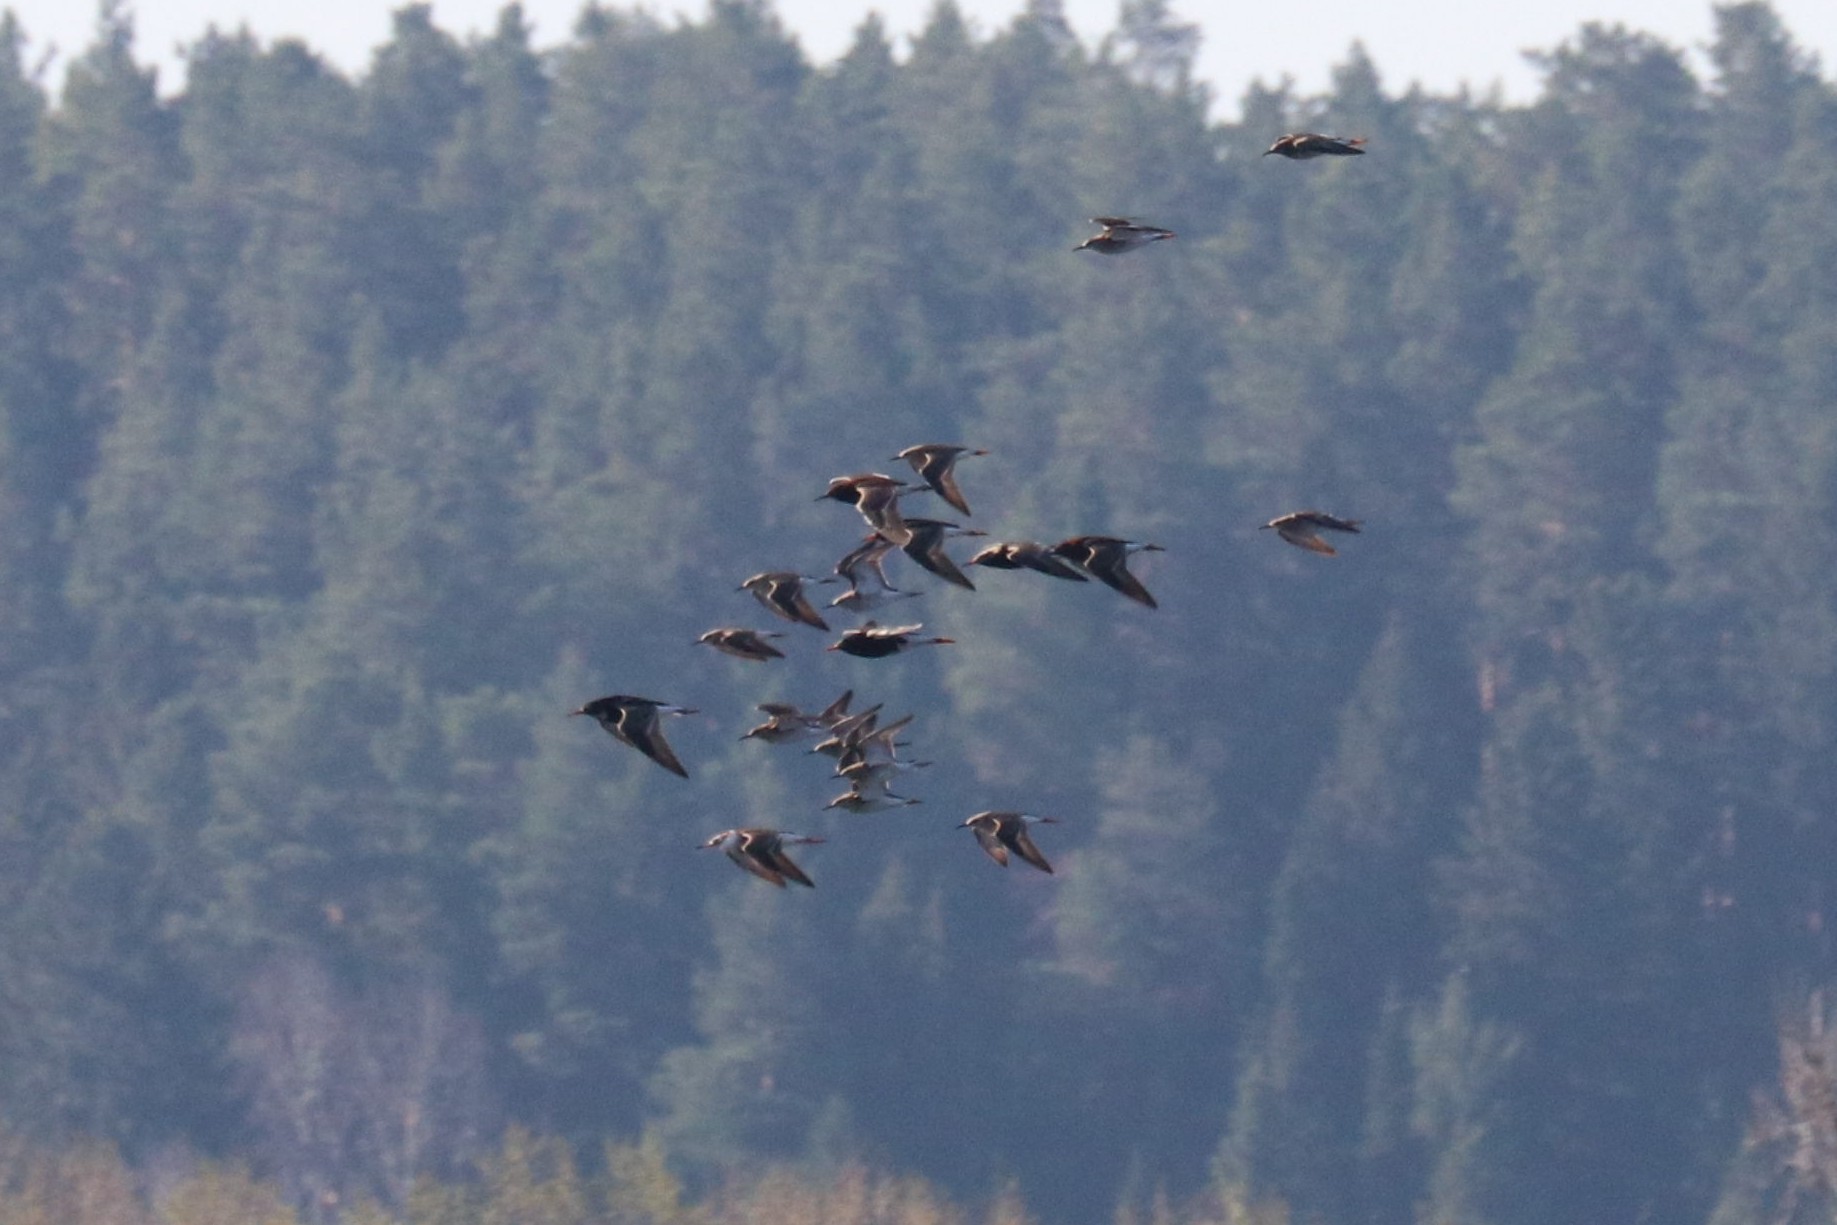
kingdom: Animalia
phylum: Chordata
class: Aves
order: Charadriiformes
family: Scolopacidae
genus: Calidris
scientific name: Calidris pugnax
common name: Ruff
